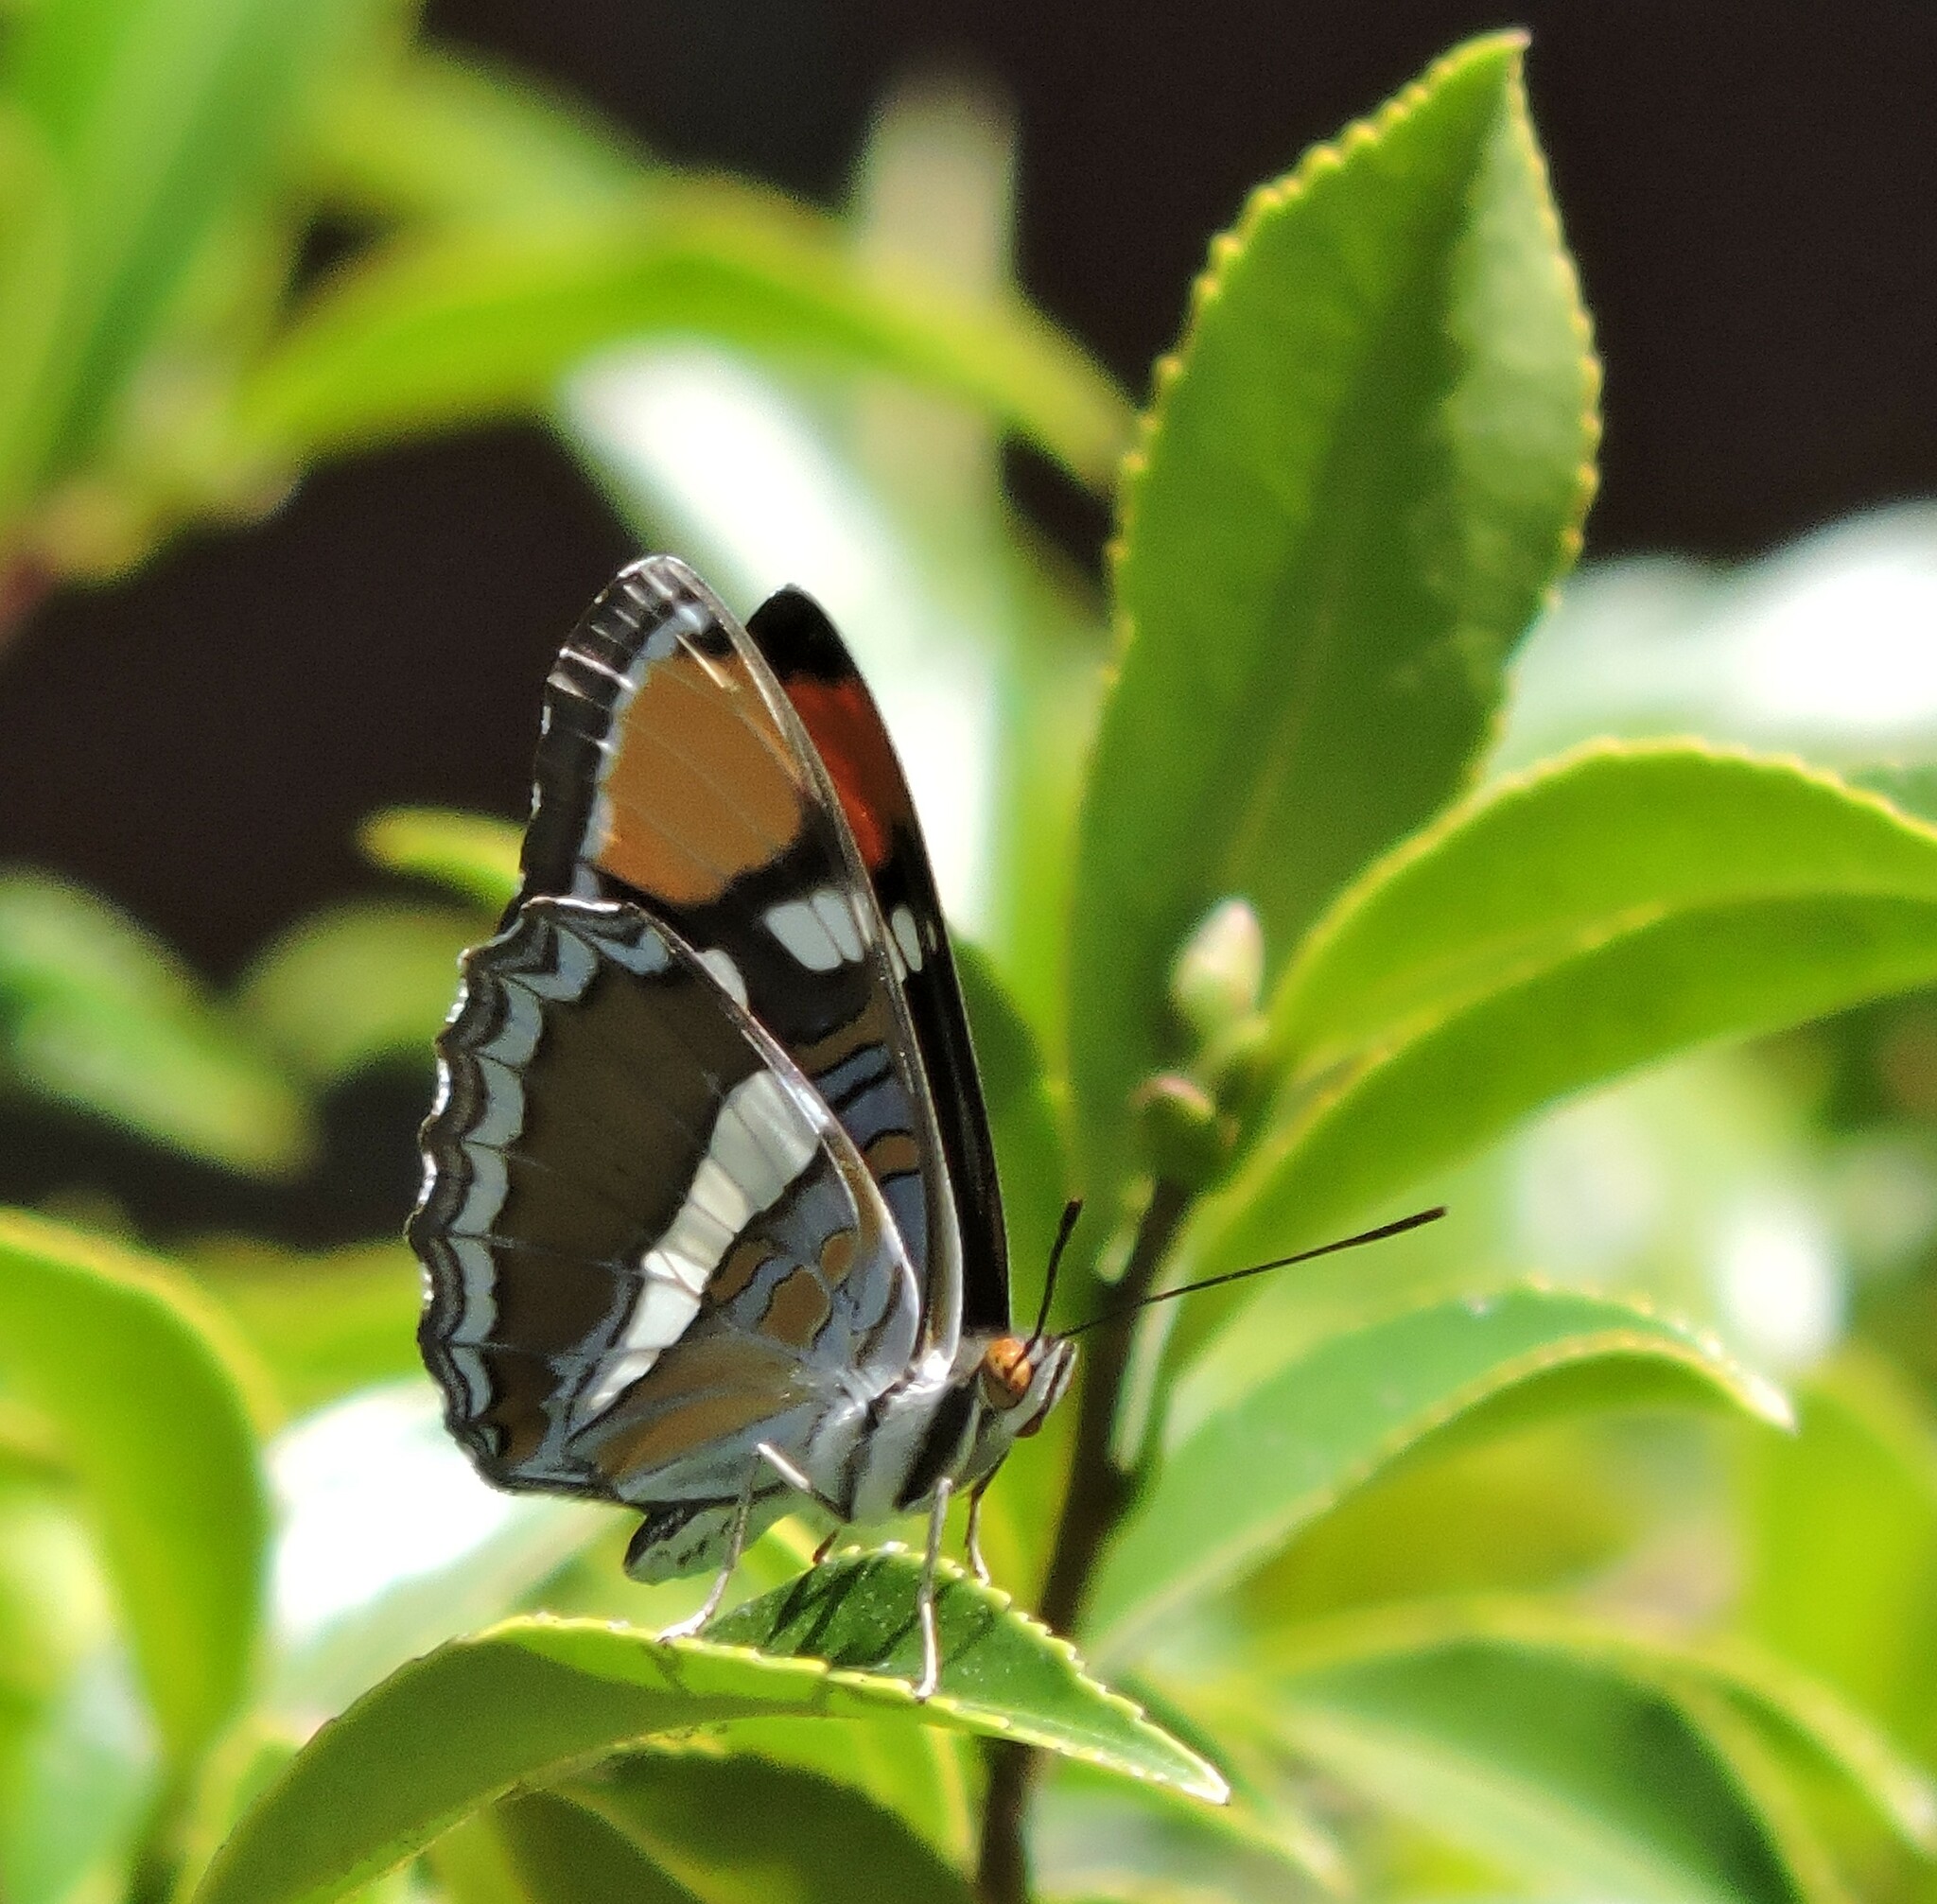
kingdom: Animalia
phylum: Arthropoda
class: Insecta
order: Lepidoptera
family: Nymphalidae
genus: Limenitis
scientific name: Limenitis bredowii
